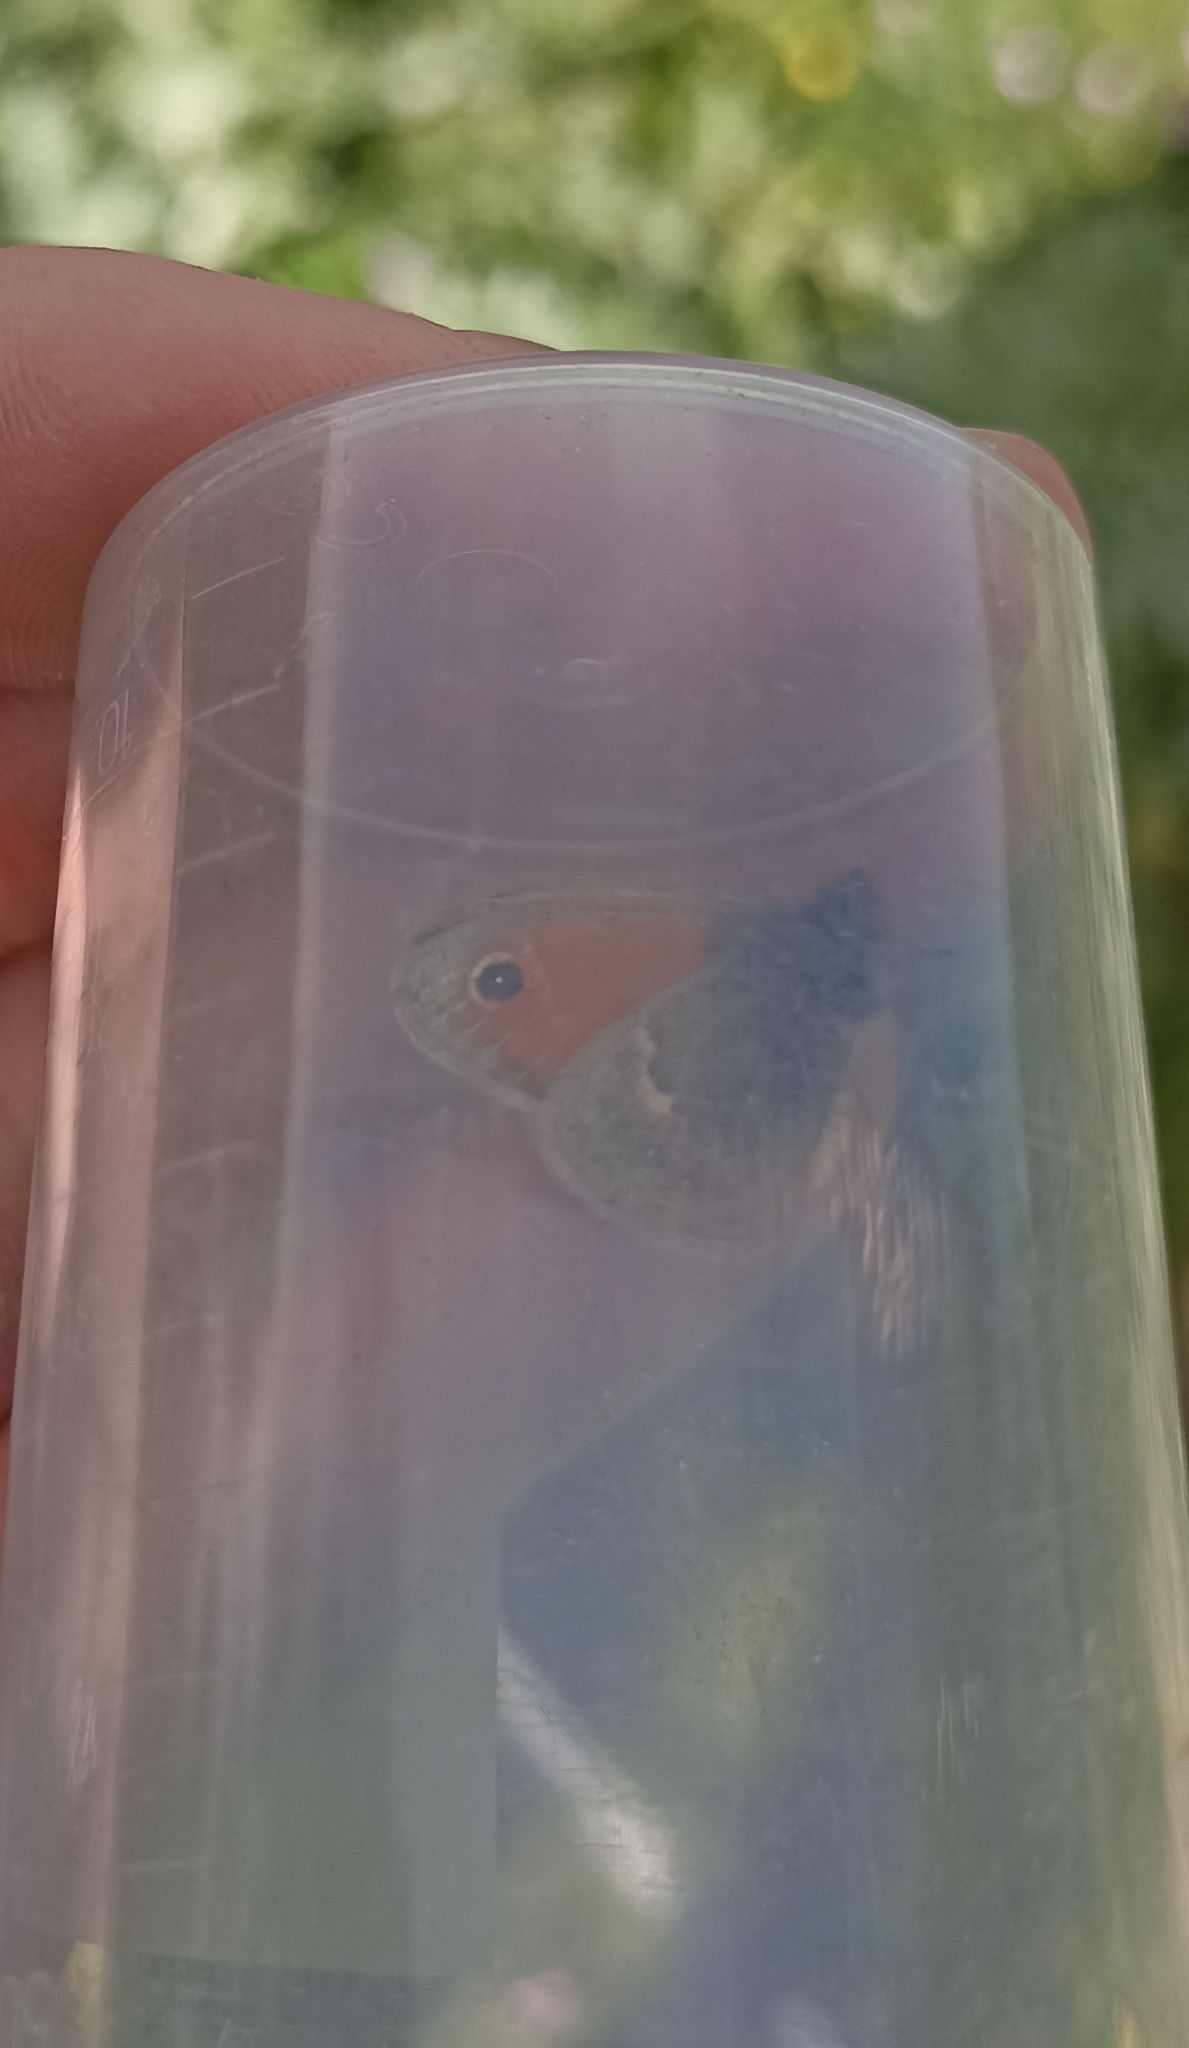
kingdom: Animalia
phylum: Arthropoda
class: Insecta
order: Lepidoptera
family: Nymphalidae
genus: Coenonympha
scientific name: Coenonympha pamphilus
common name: Small heath
